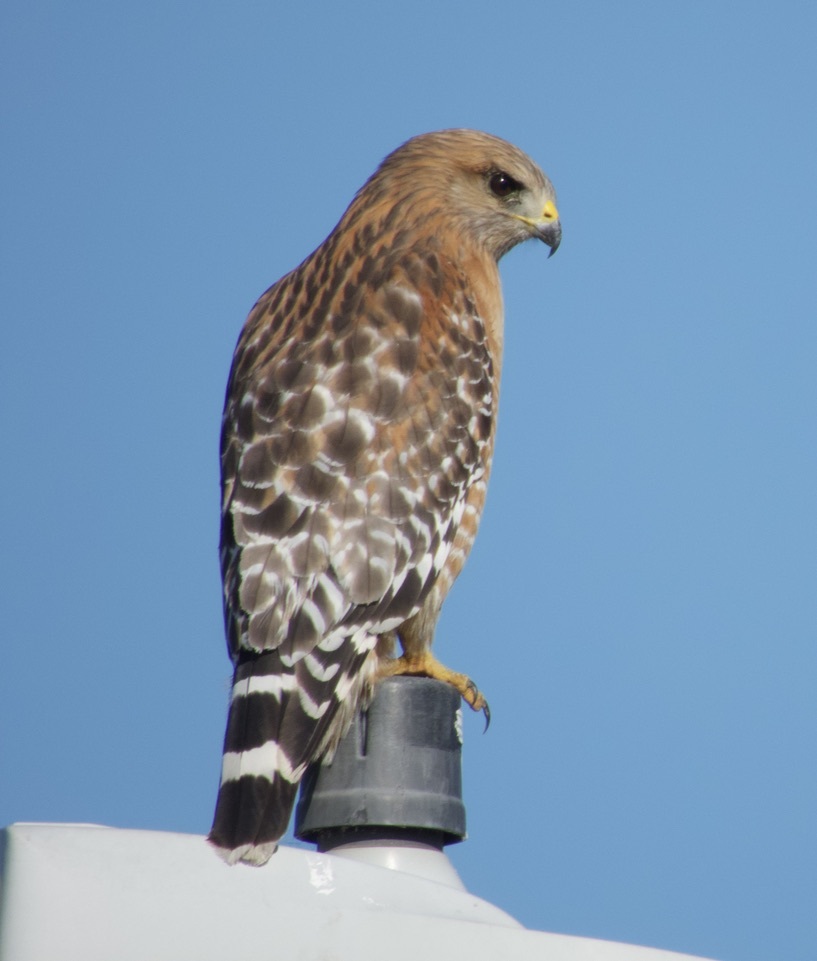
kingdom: Animalia
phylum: Chordata
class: Aves
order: Accipitriformes
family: Accipitridae
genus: Buteo
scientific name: Buteo lineatus
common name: Red-shouldered hawk
